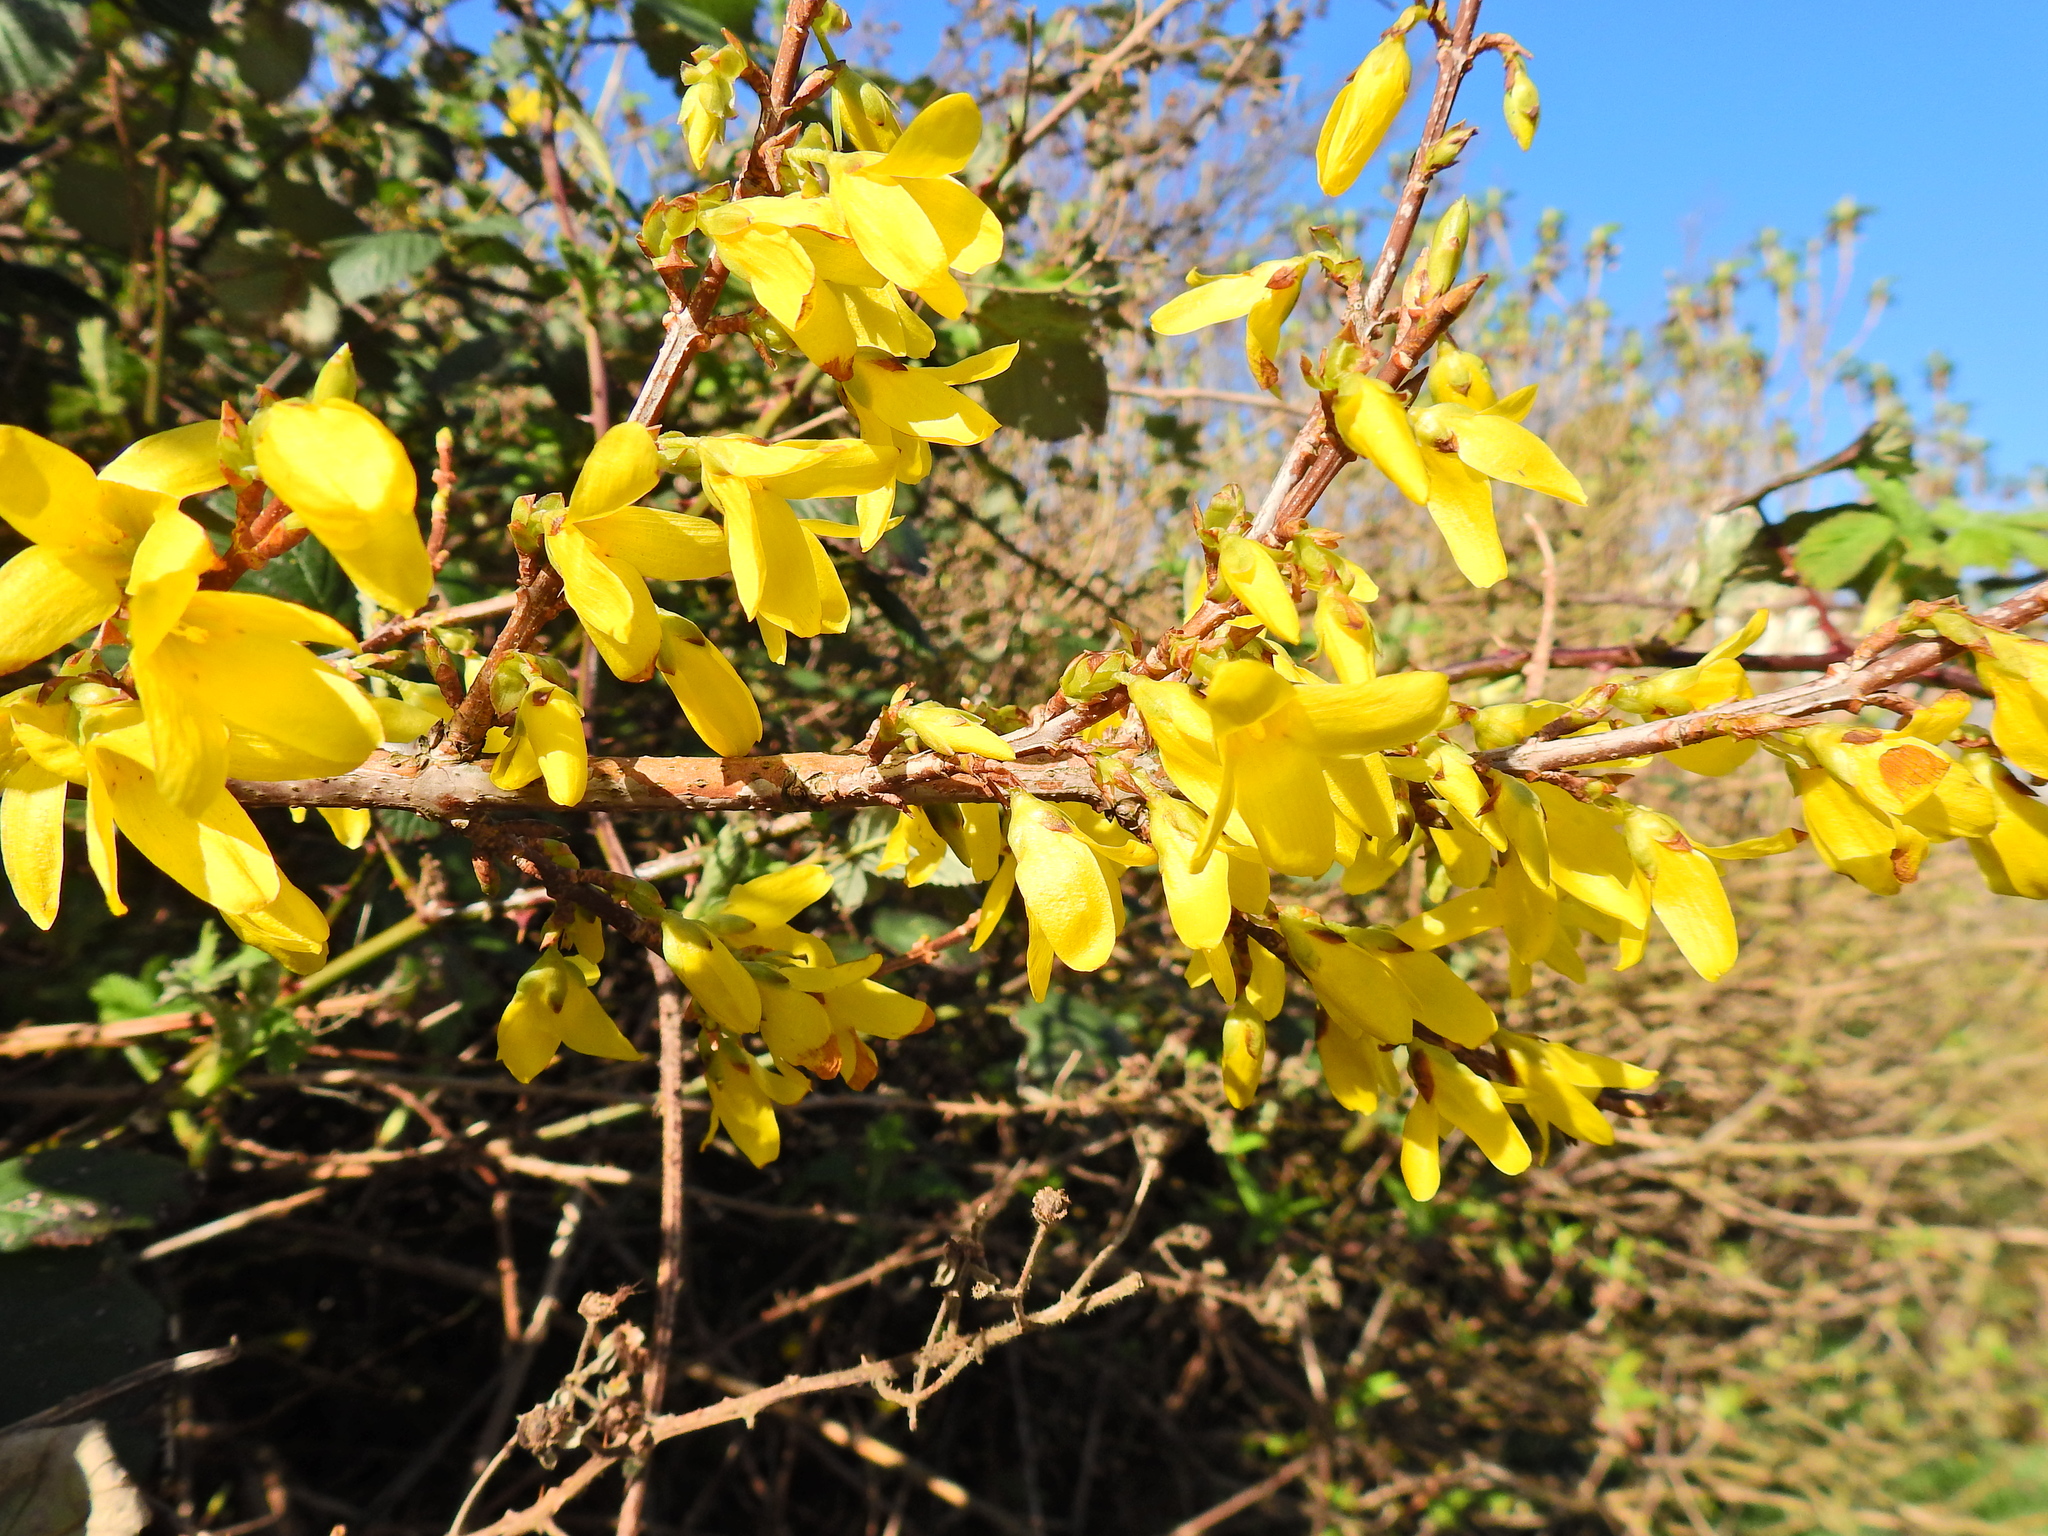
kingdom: Plantae
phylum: Tracheophyta
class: Magnoliopsida
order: Lamiales
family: Oleaceae
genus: Forsythia
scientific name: Forsythia intermedia
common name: Forsythia
